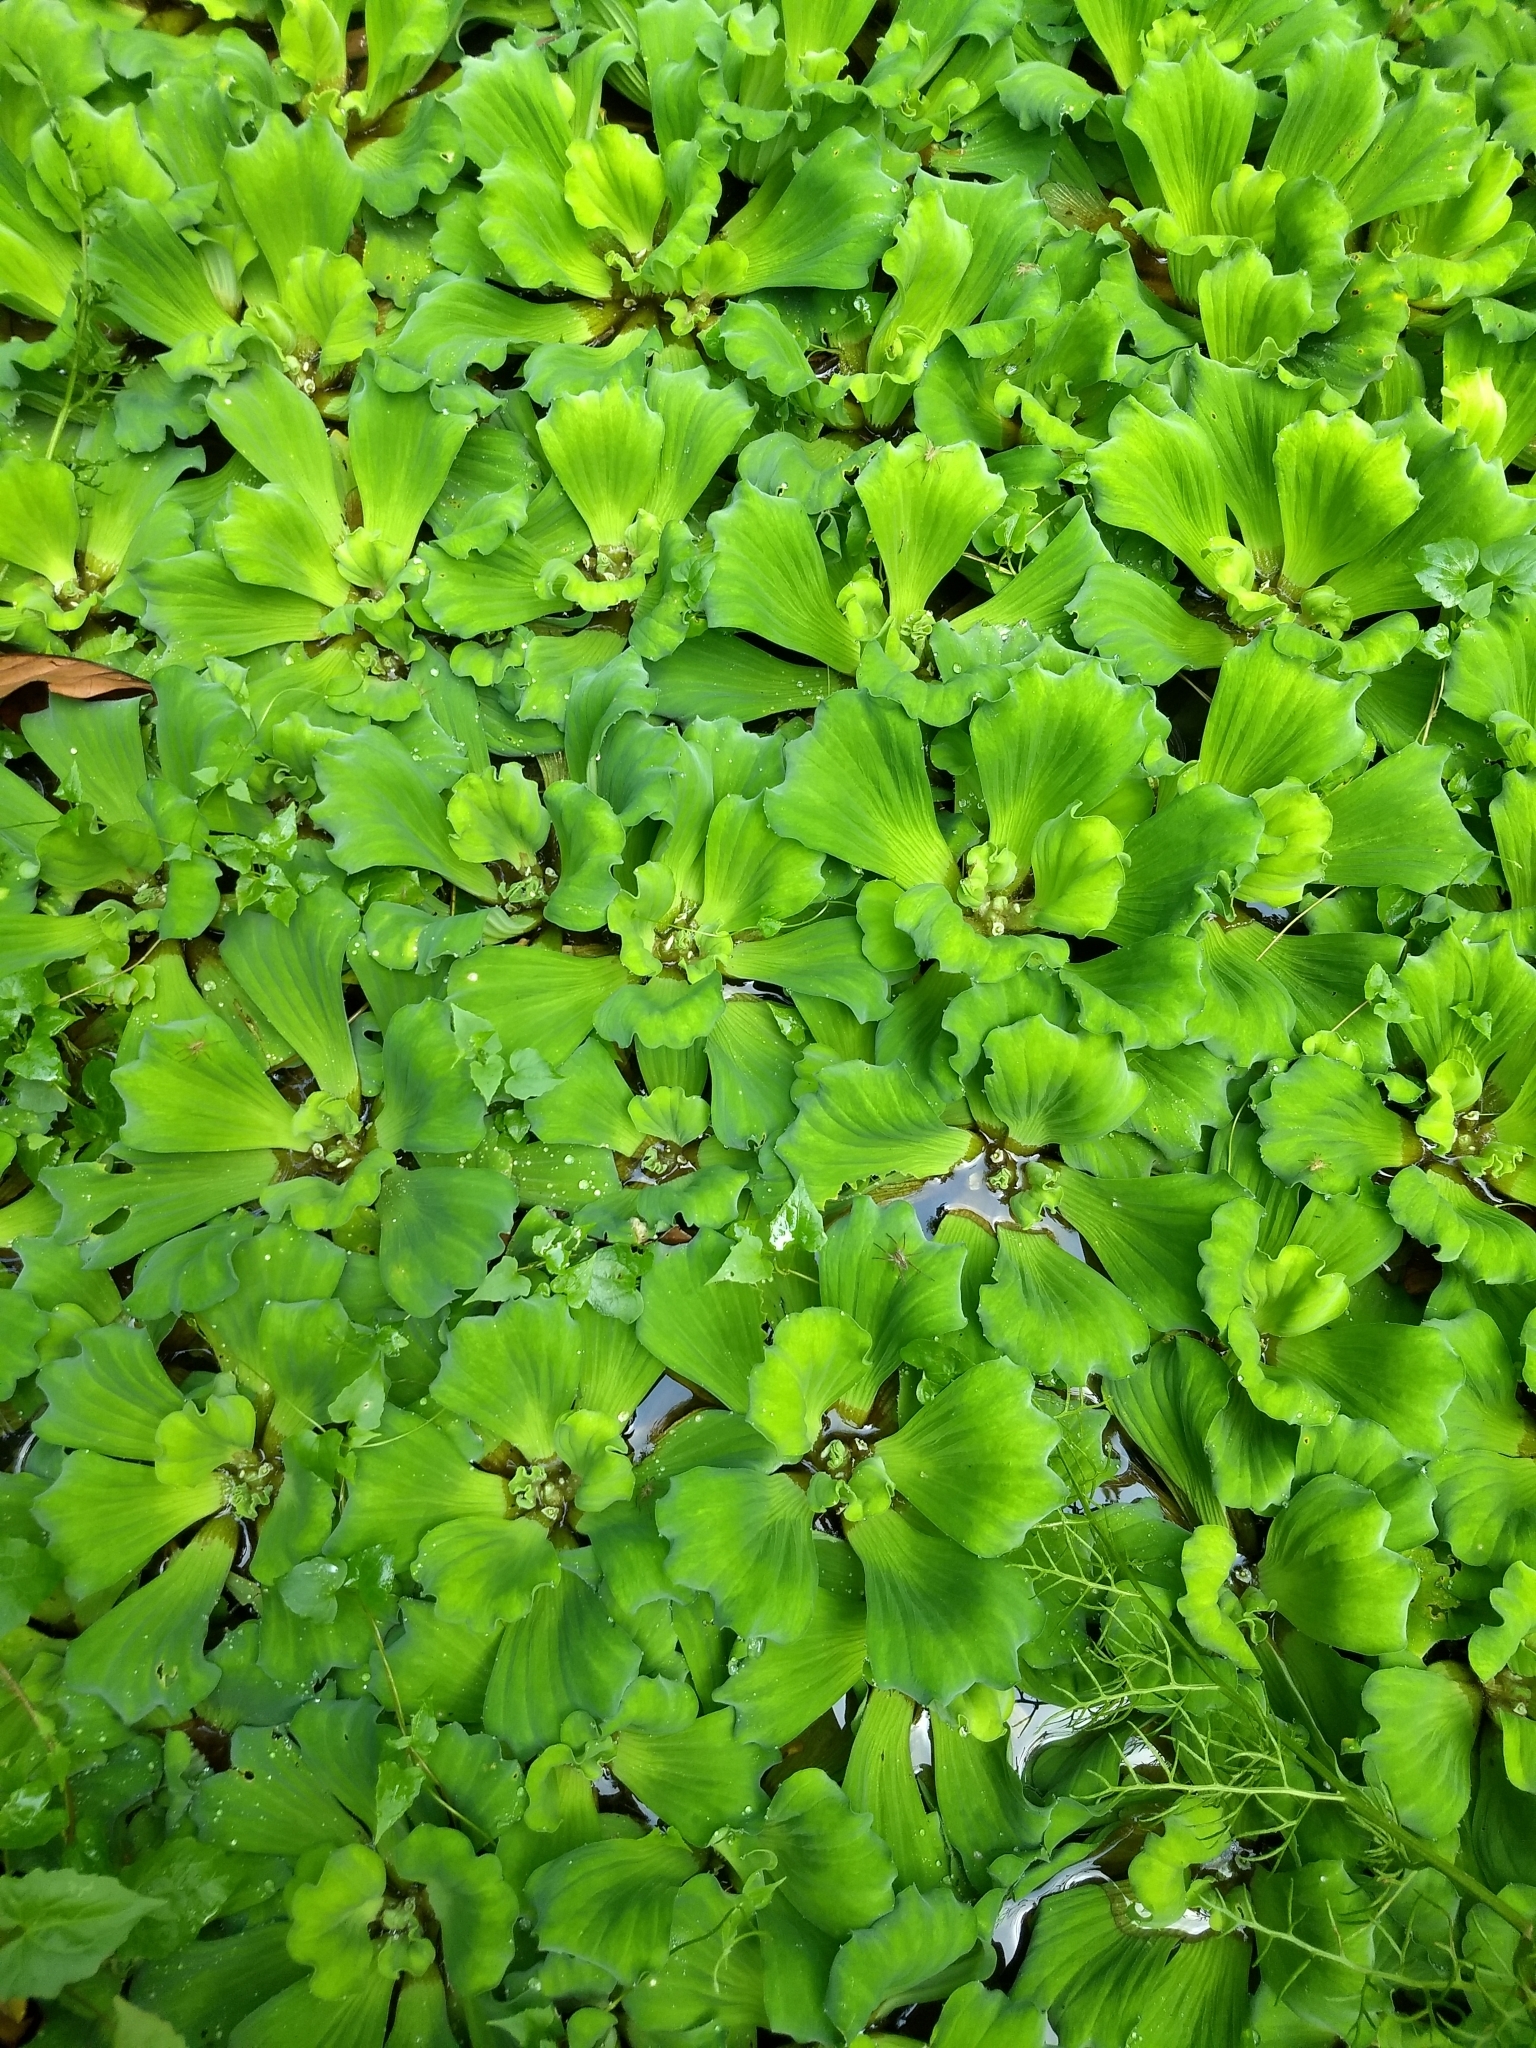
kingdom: Plantae
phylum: Tracheophyta
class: Liliopsida
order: Alismatales
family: Araceae
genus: Pistia
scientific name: Pistia stratiotes
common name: Water lettuce
